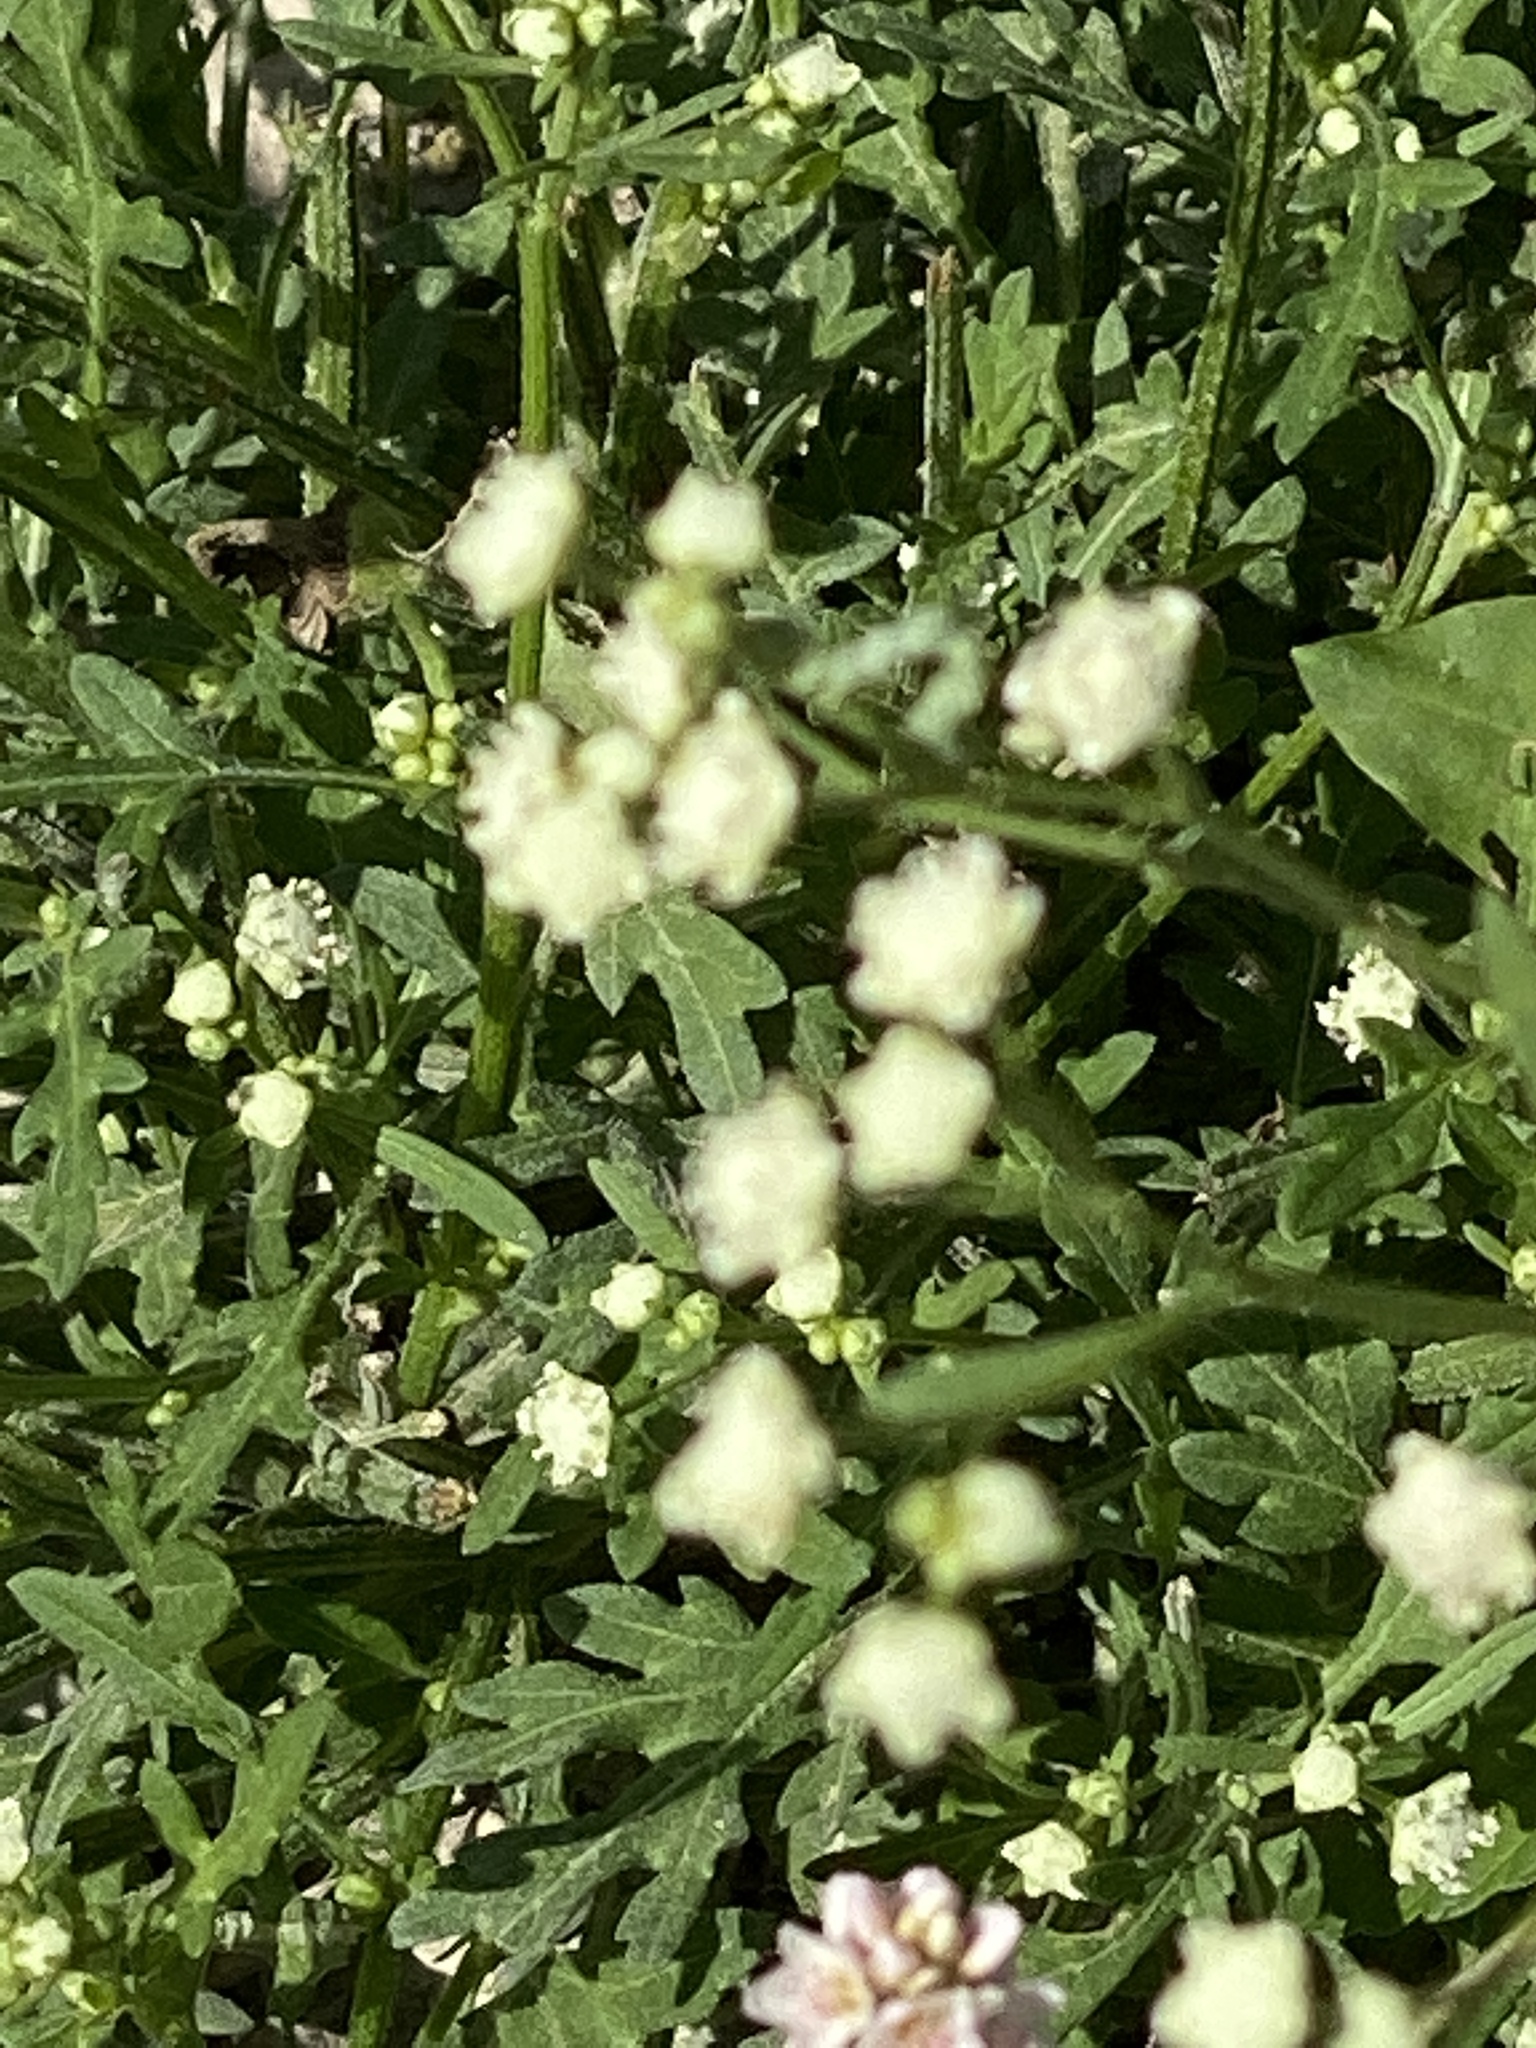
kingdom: Plantae
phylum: Tracheophyta
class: Magnoliopsida
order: Asterales
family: Asteraceae
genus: Parthenium
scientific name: Parthenium hysterophorus
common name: Santa maria feverfew
